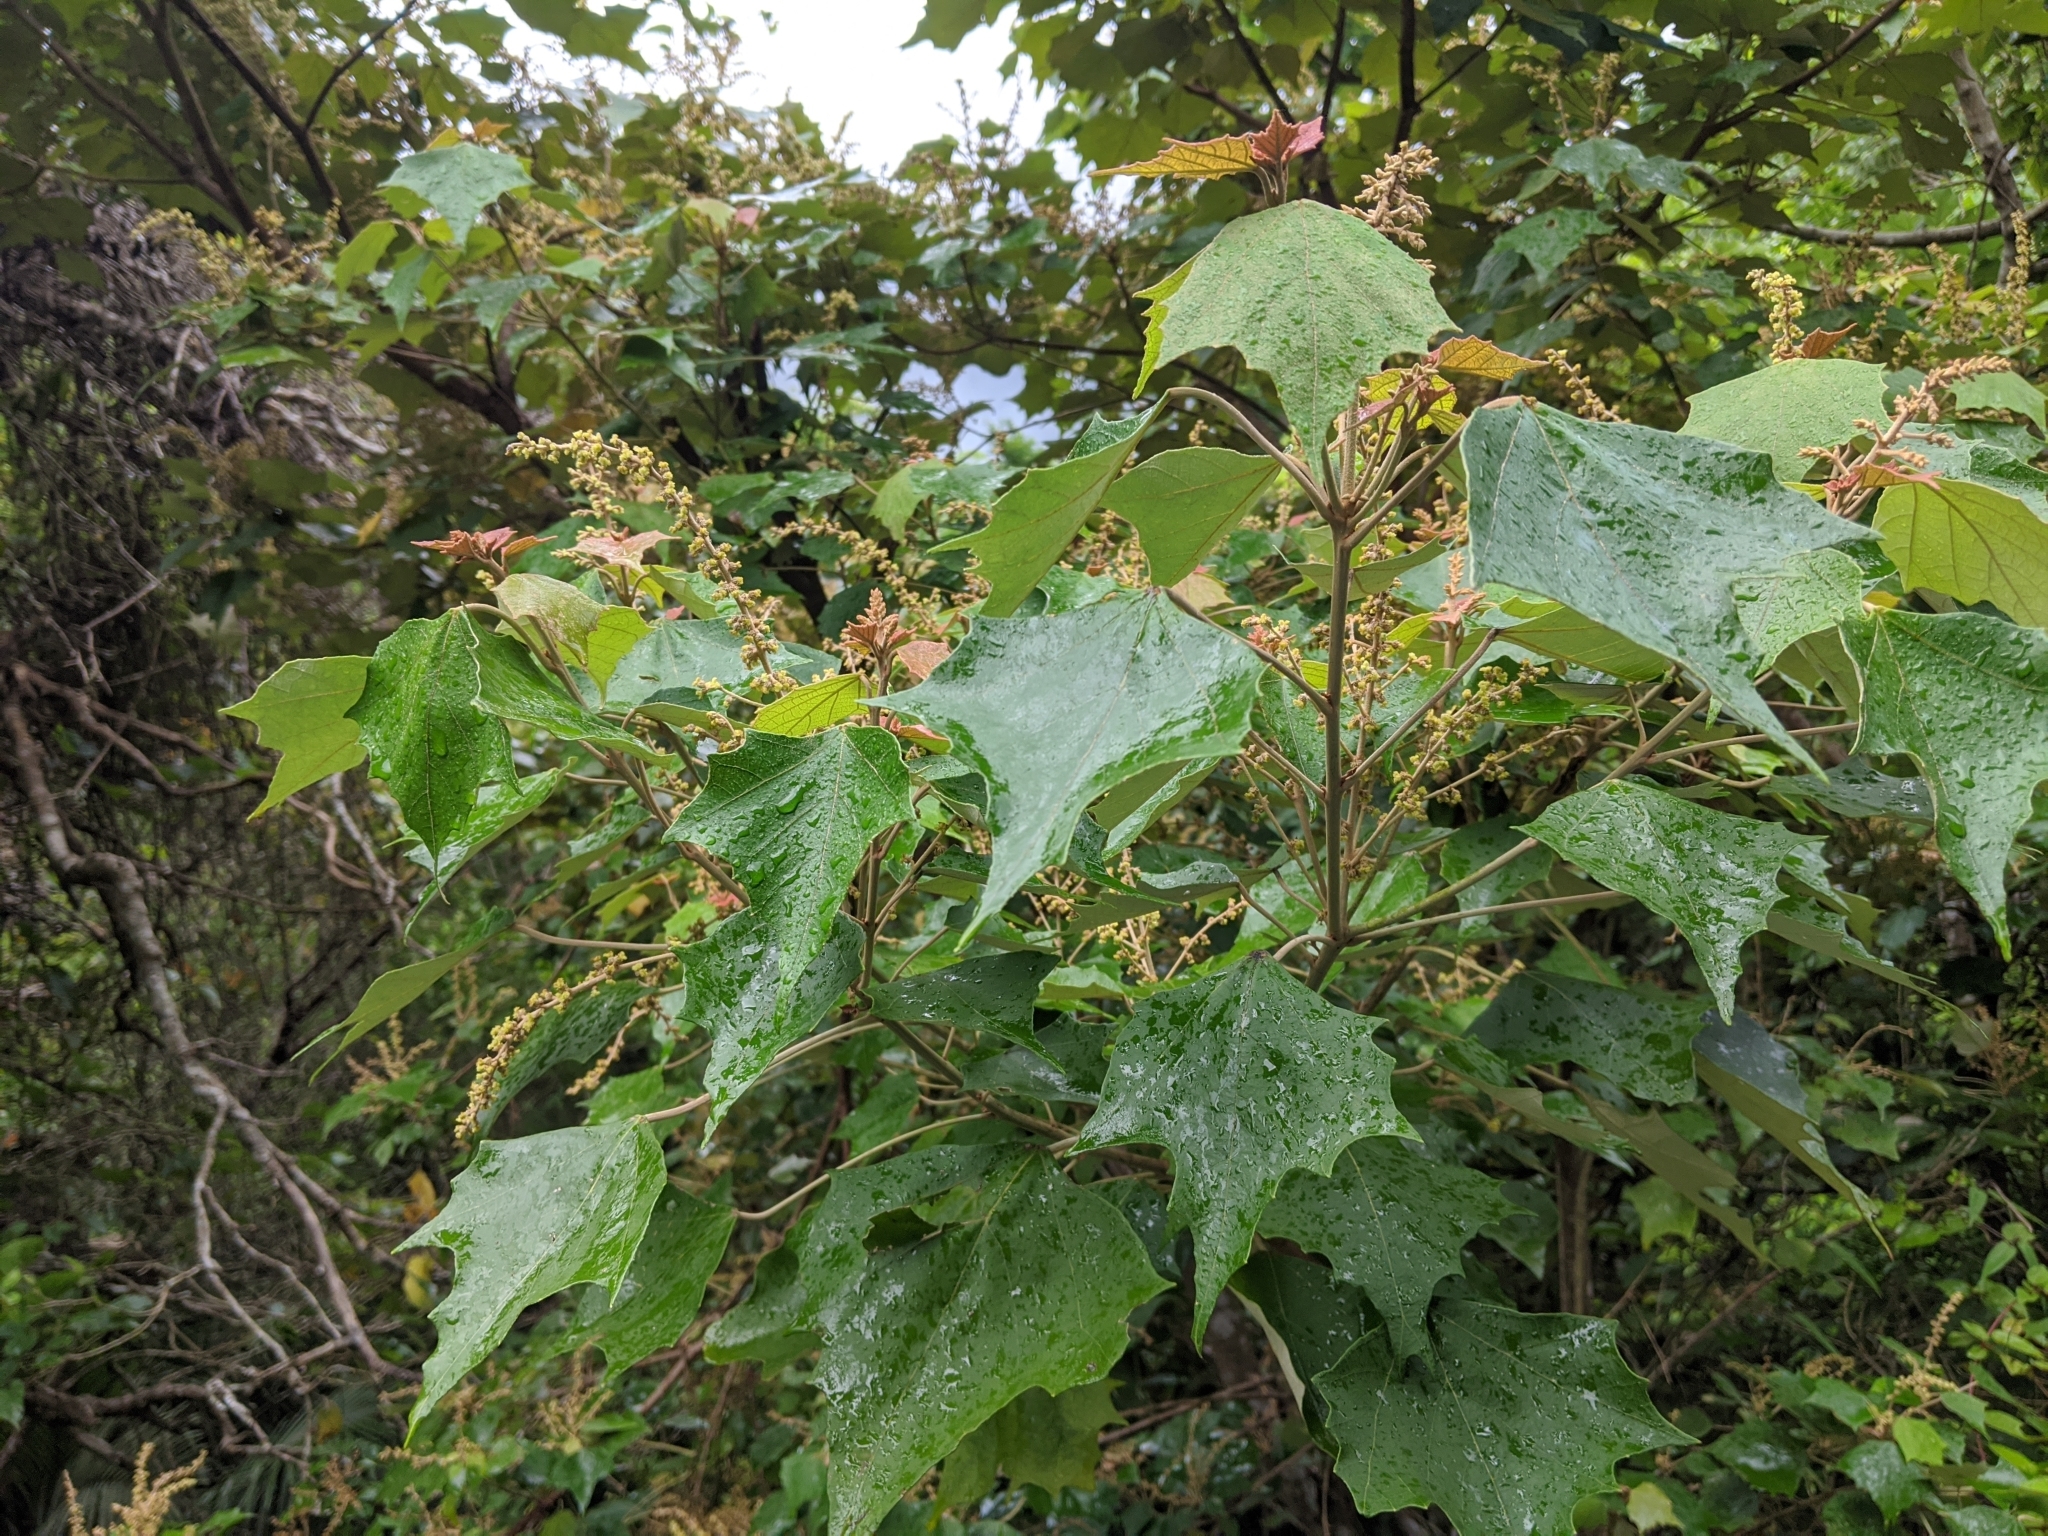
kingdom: Plantae
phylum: Tracheophyta
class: Magnoliopsida
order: Malpighiales
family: Euphorbiaceae
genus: Mallotus
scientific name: Mallotus paniculatus
